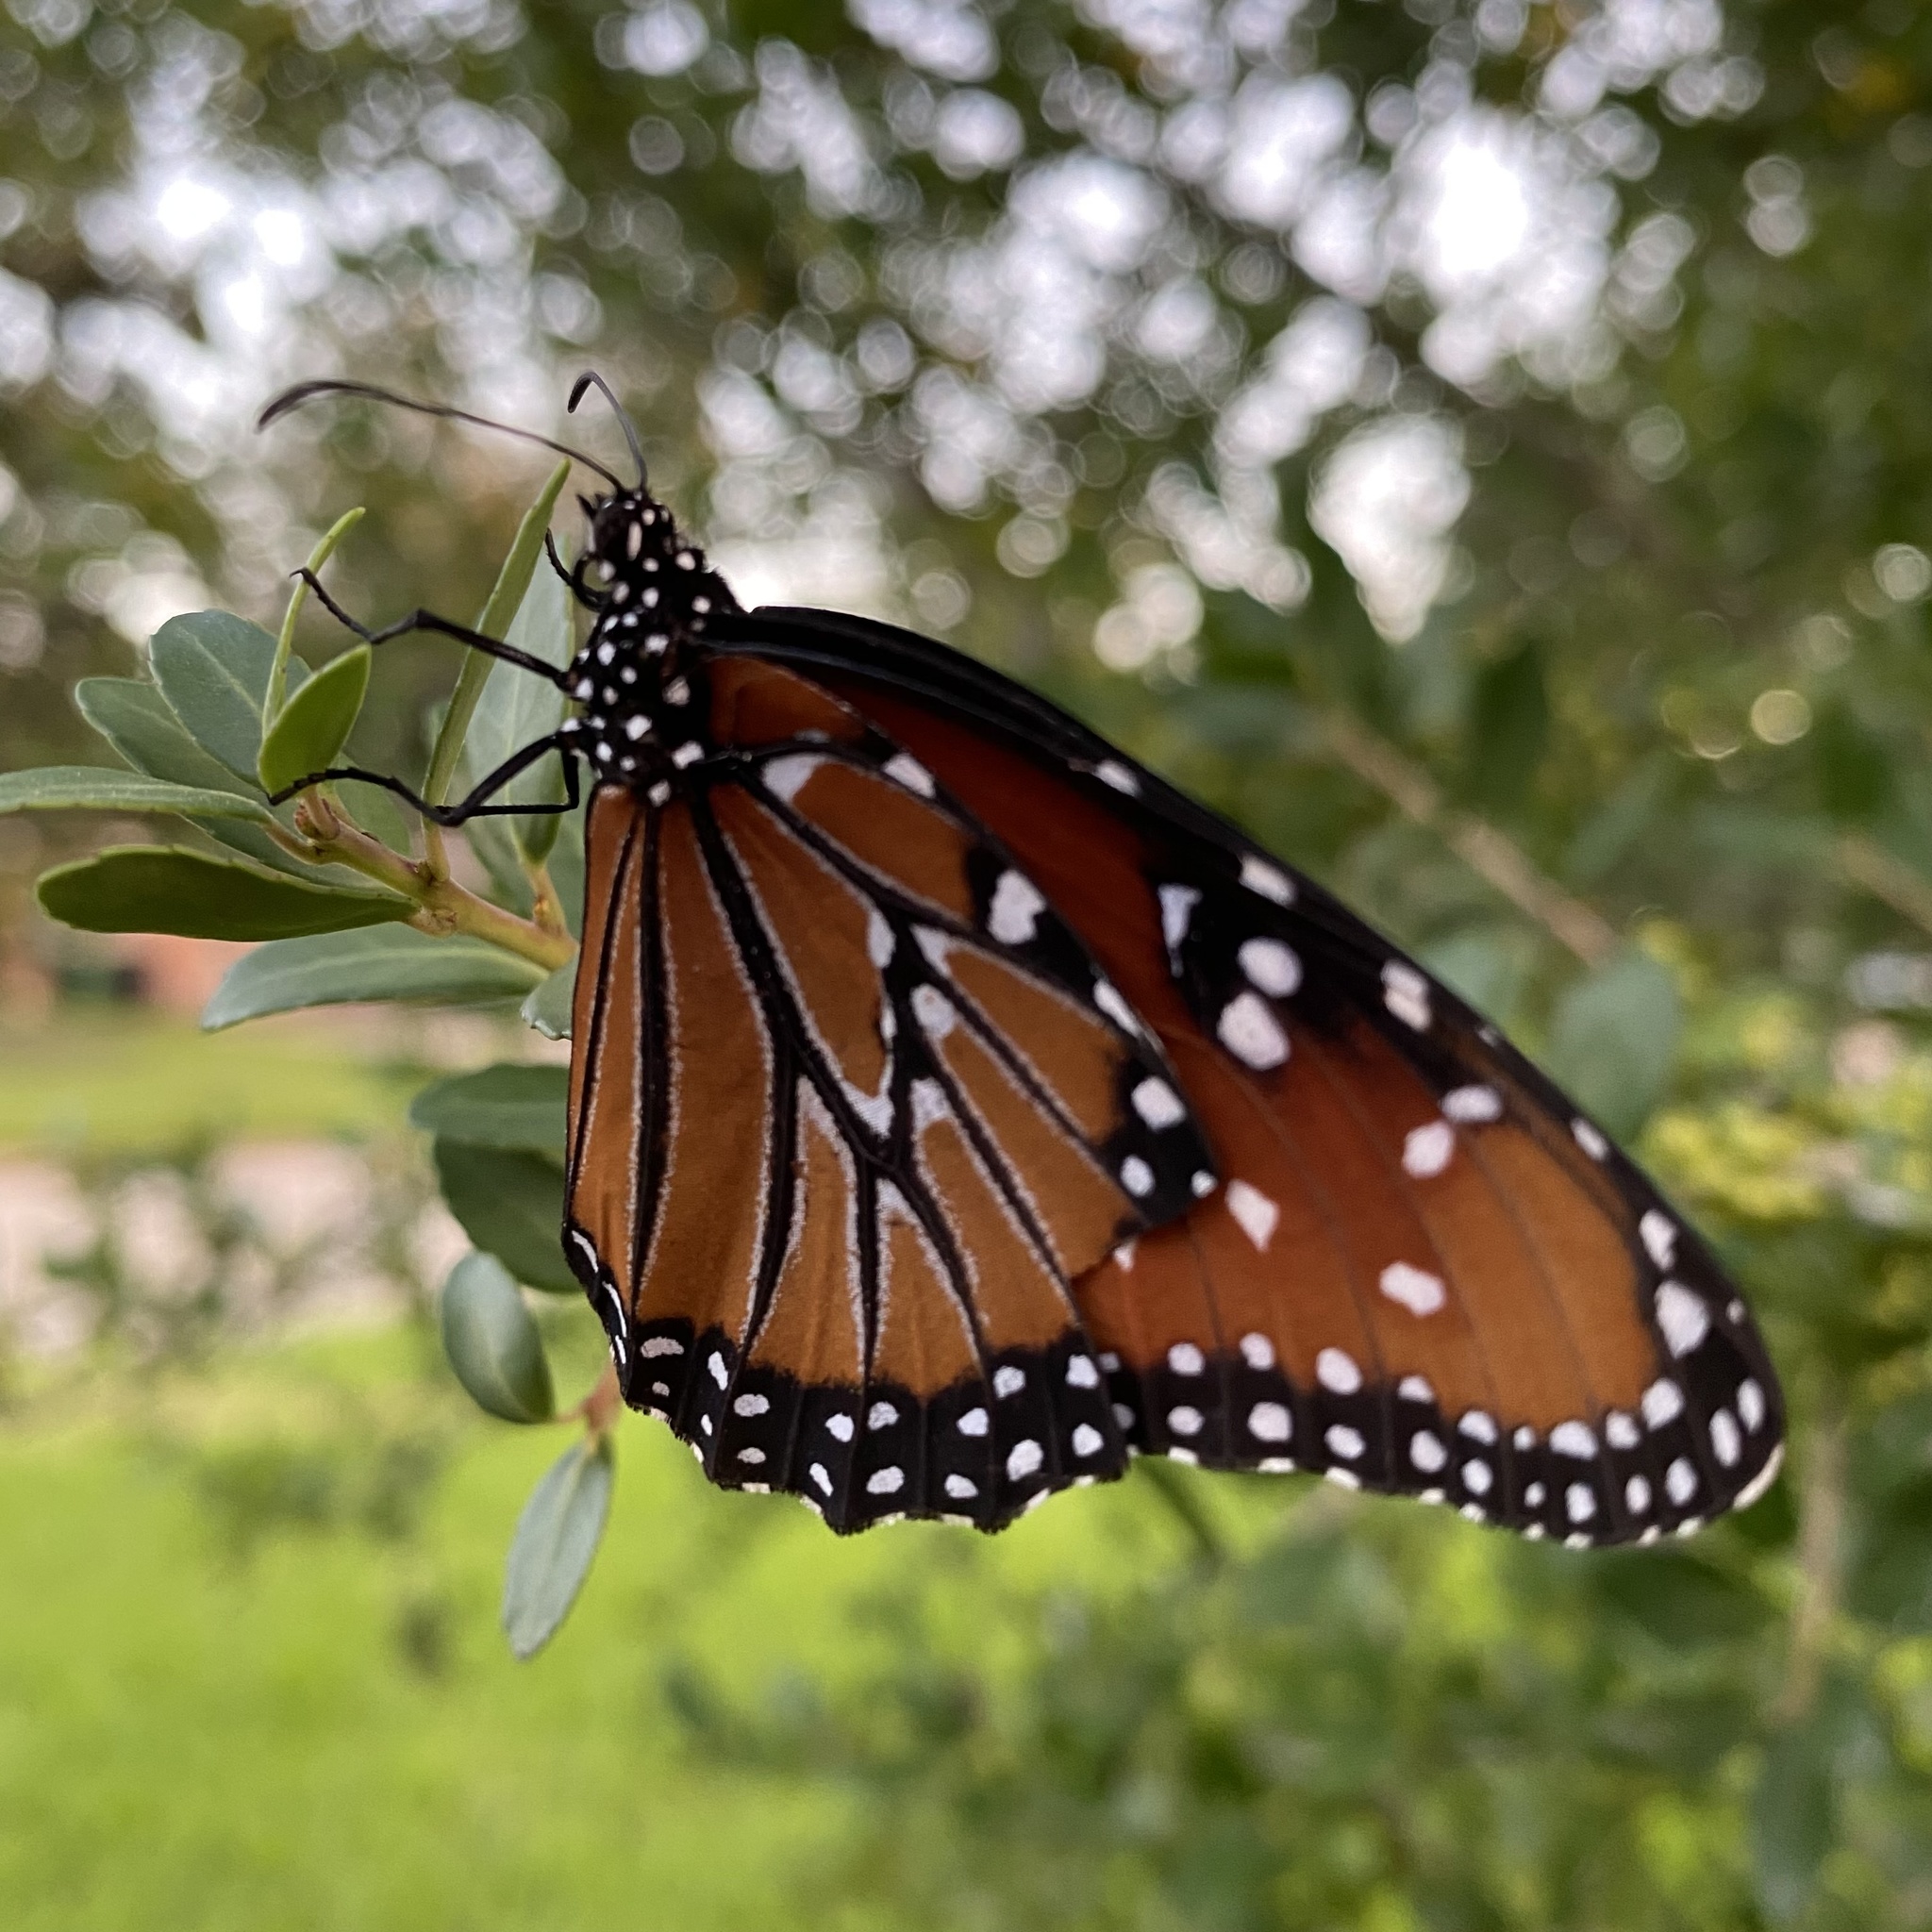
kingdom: Animalia
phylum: Arthropoda
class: Insecta
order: Lepidoptera
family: Nymphalidae
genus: Danaus
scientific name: Danaus gilippus
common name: Queen
